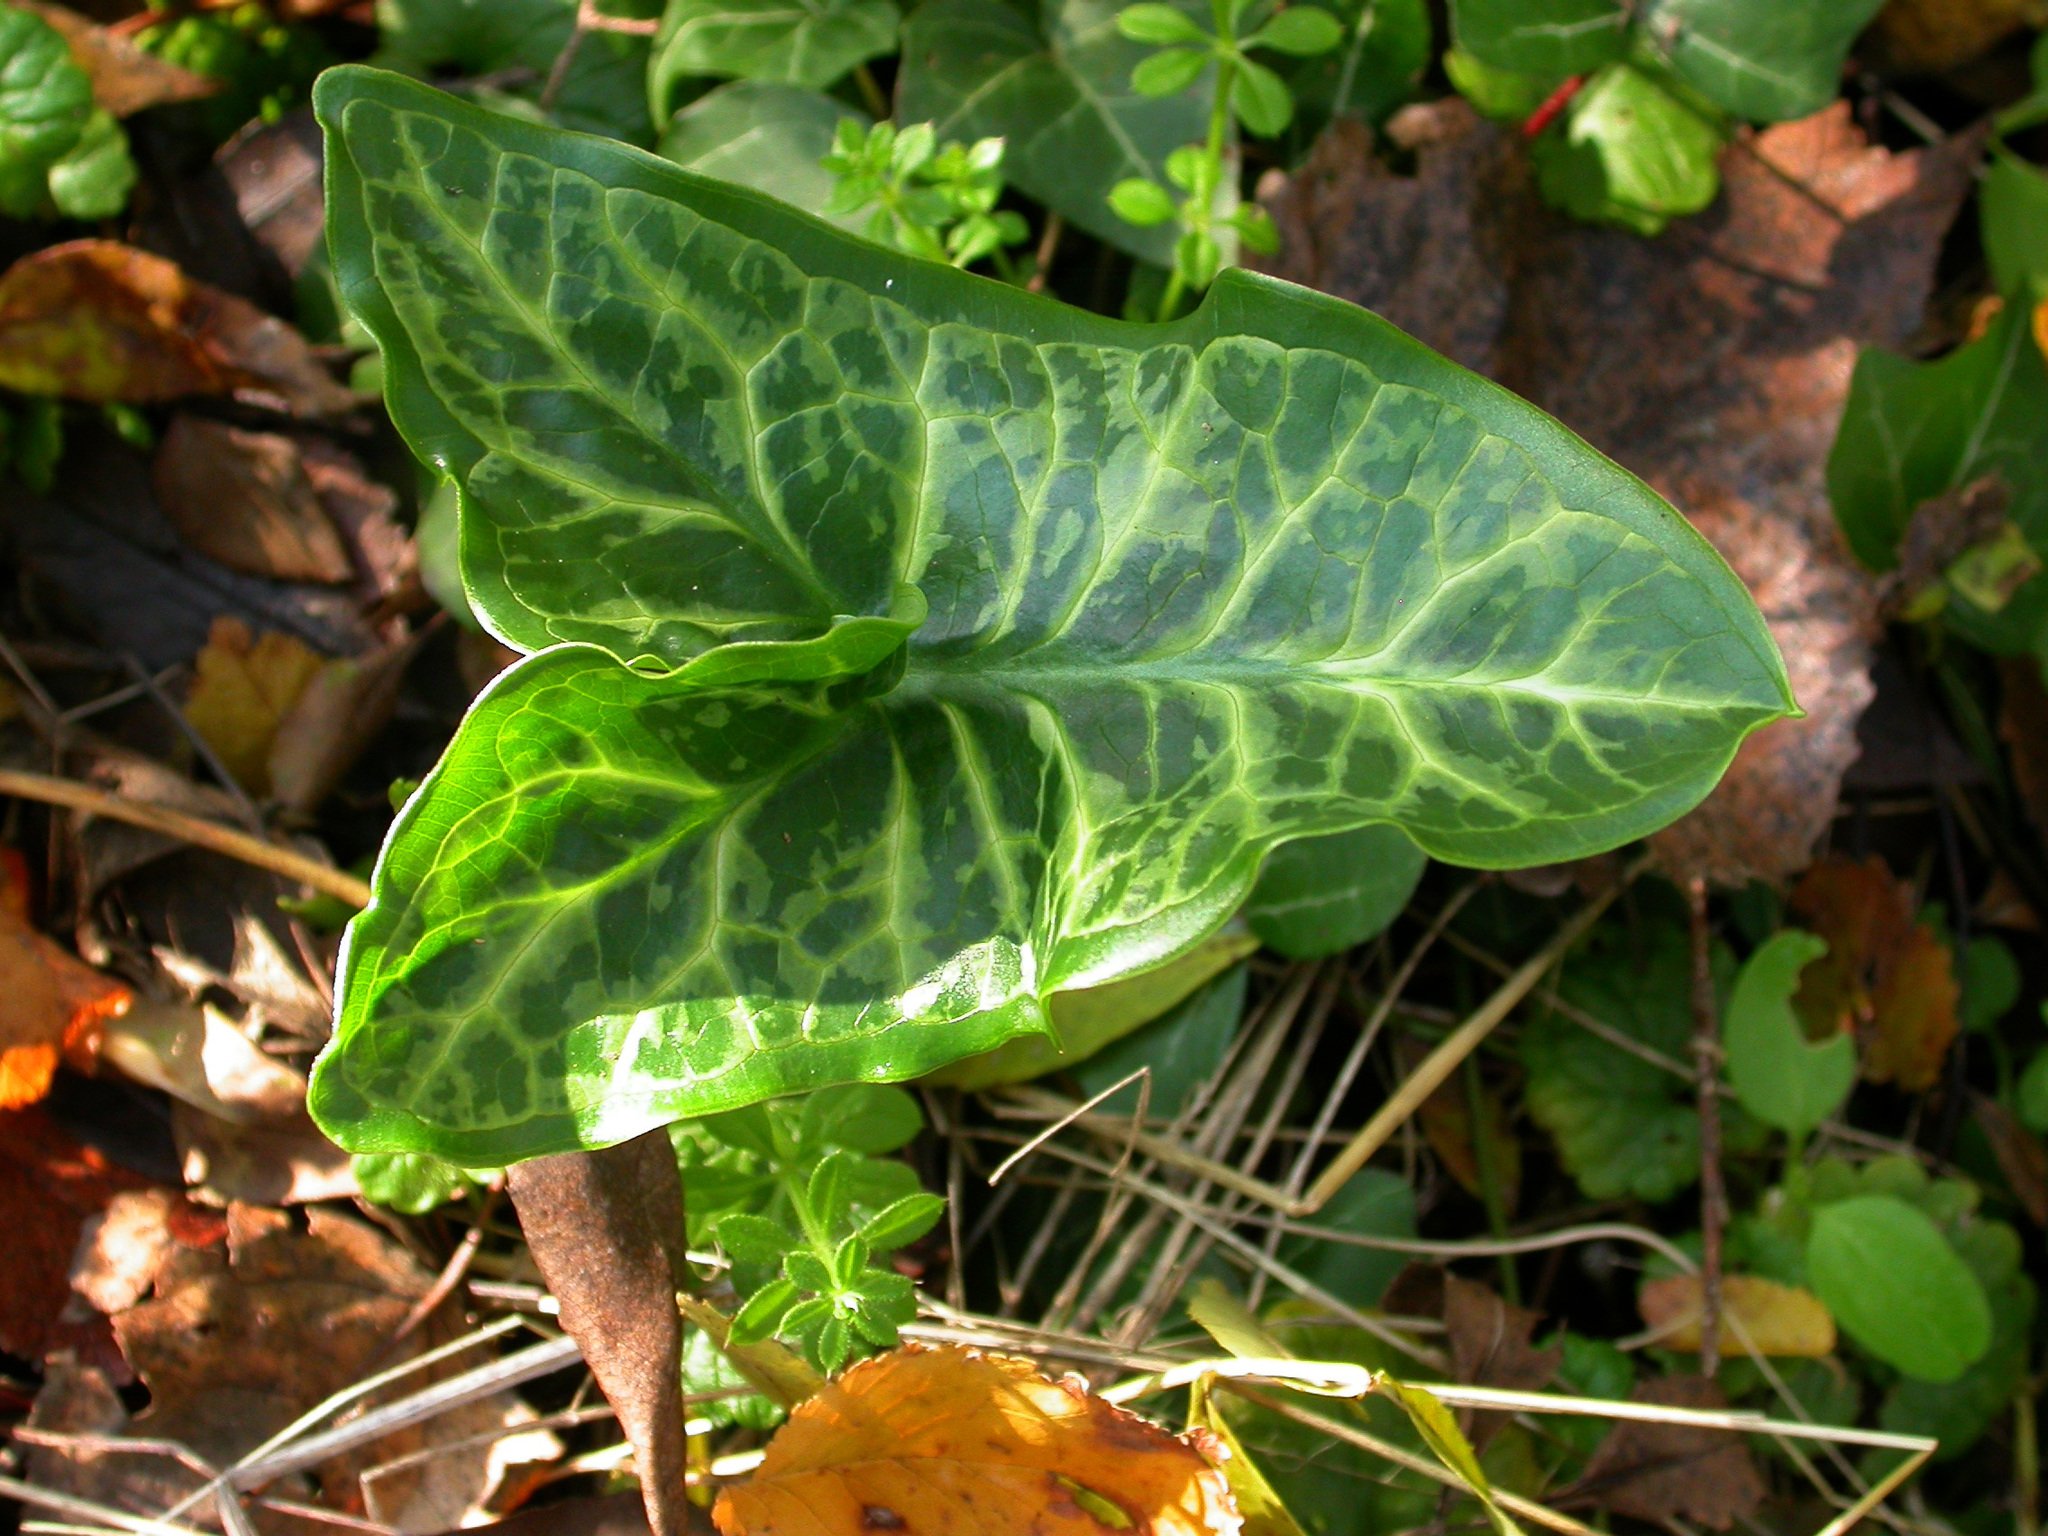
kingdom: Plantae
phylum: Tracheophyta
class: Liliopsida
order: Alismatales
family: Araceae
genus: Arum
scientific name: Arum italicum
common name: Italian lords-and-ladies
